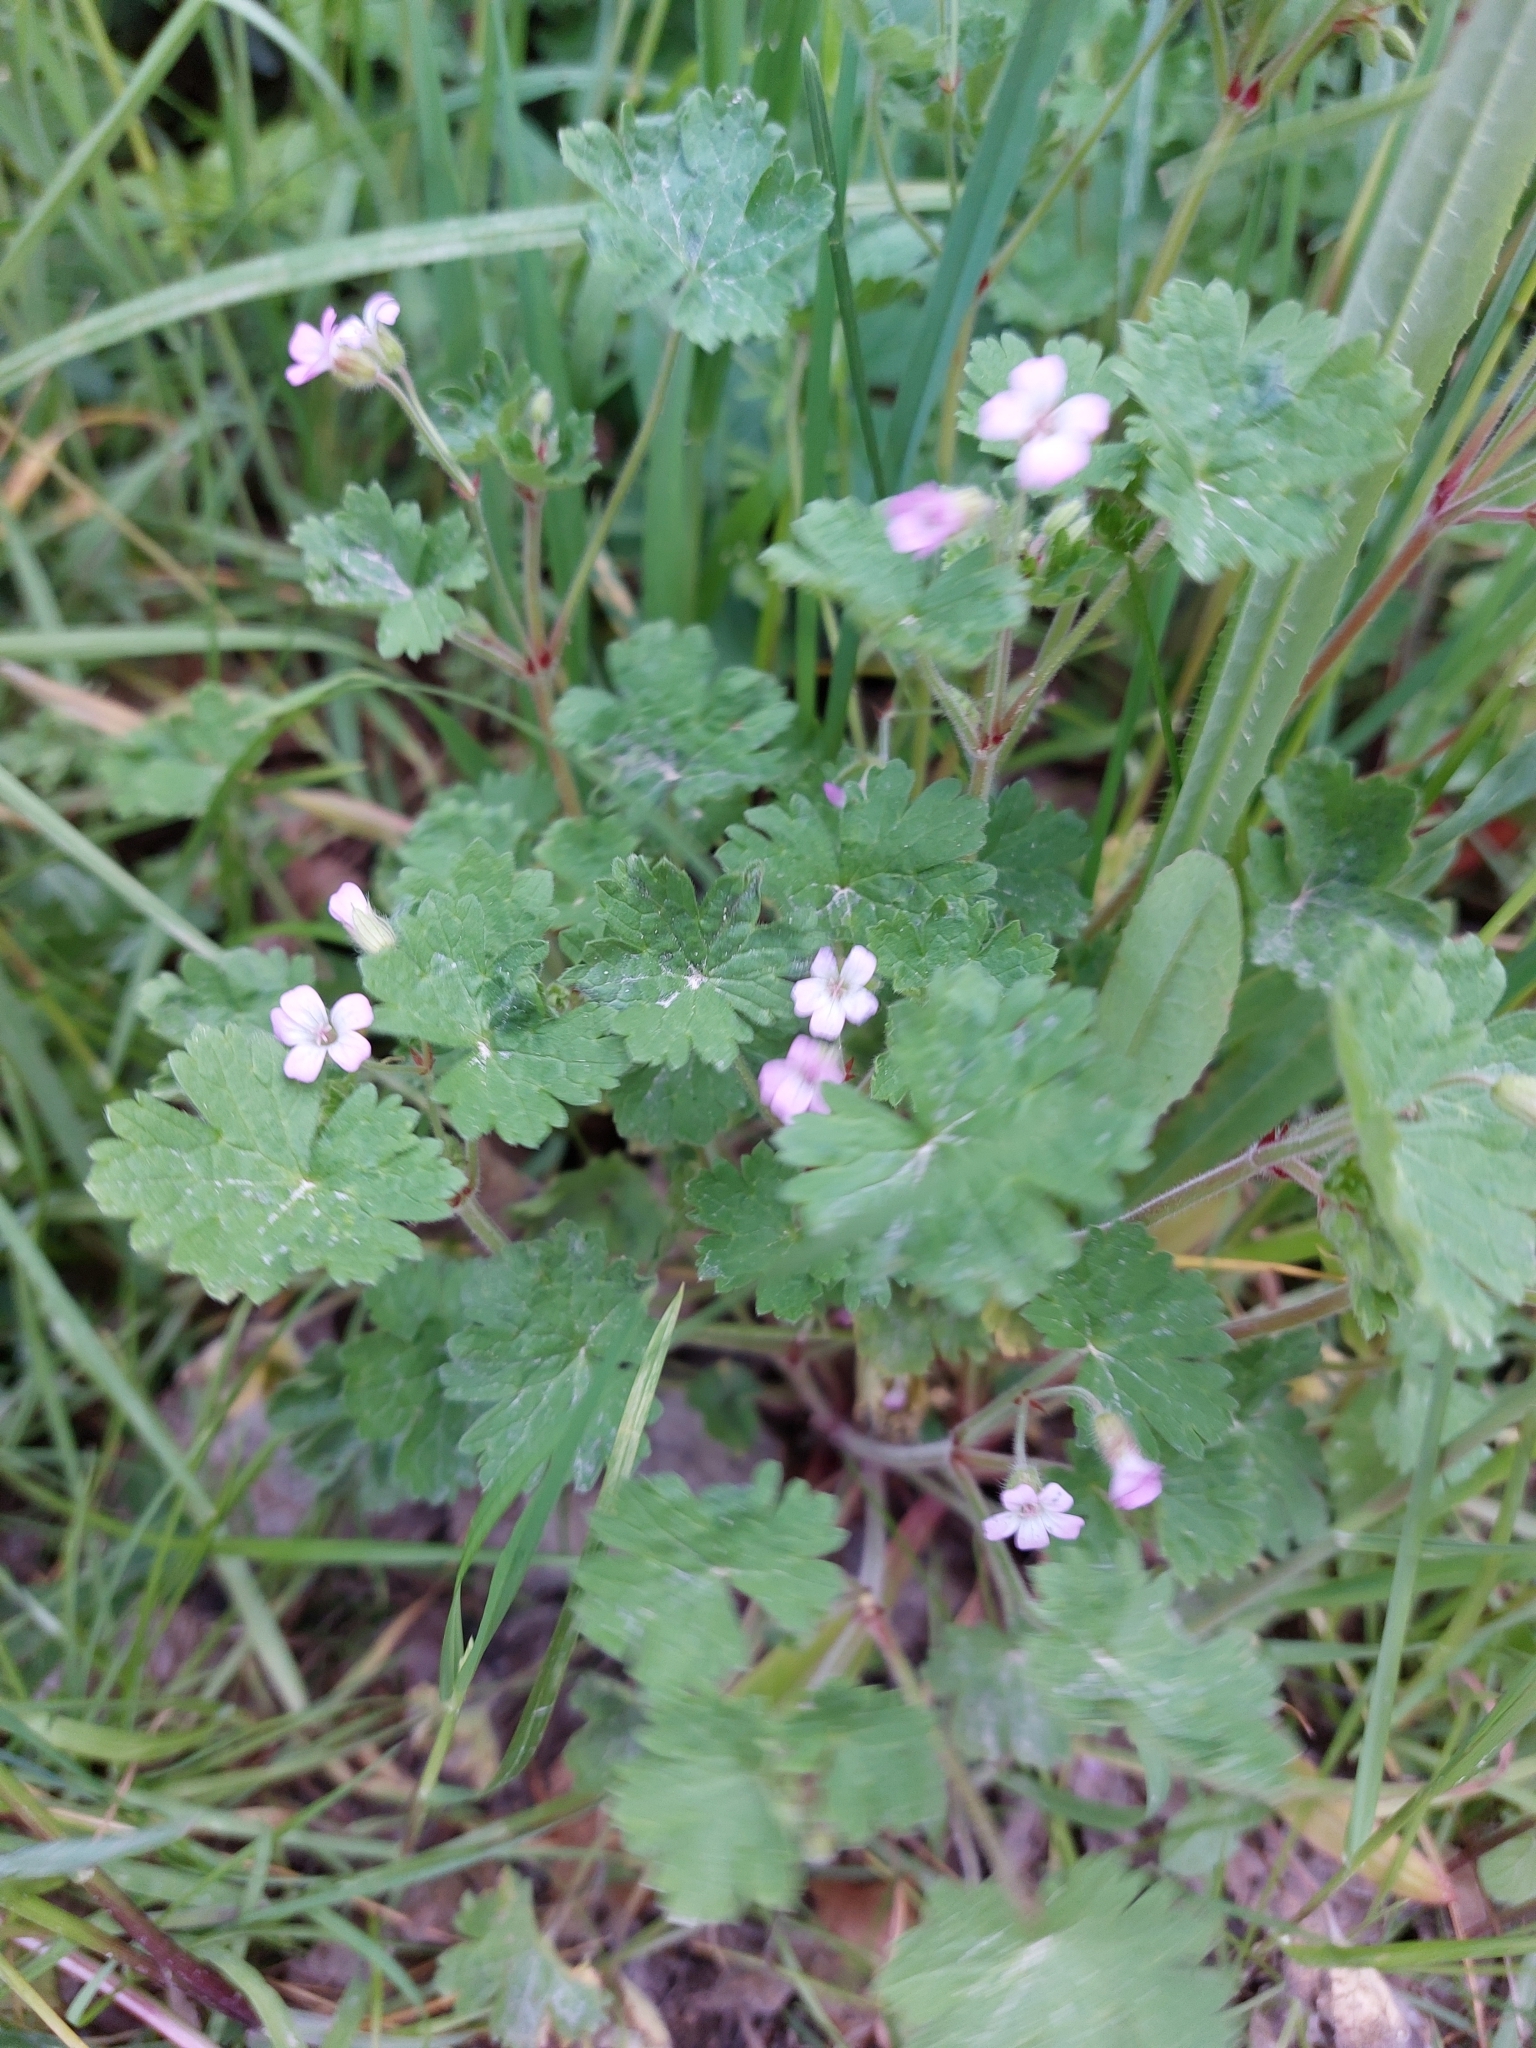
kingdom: Plantae
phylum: Tracheophyta
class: Magnoliopsida
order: Geraniales
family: Geraniaceae
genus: Geranium
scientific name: Geranium rotundifolium
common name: Round-leaved crane's-bill
